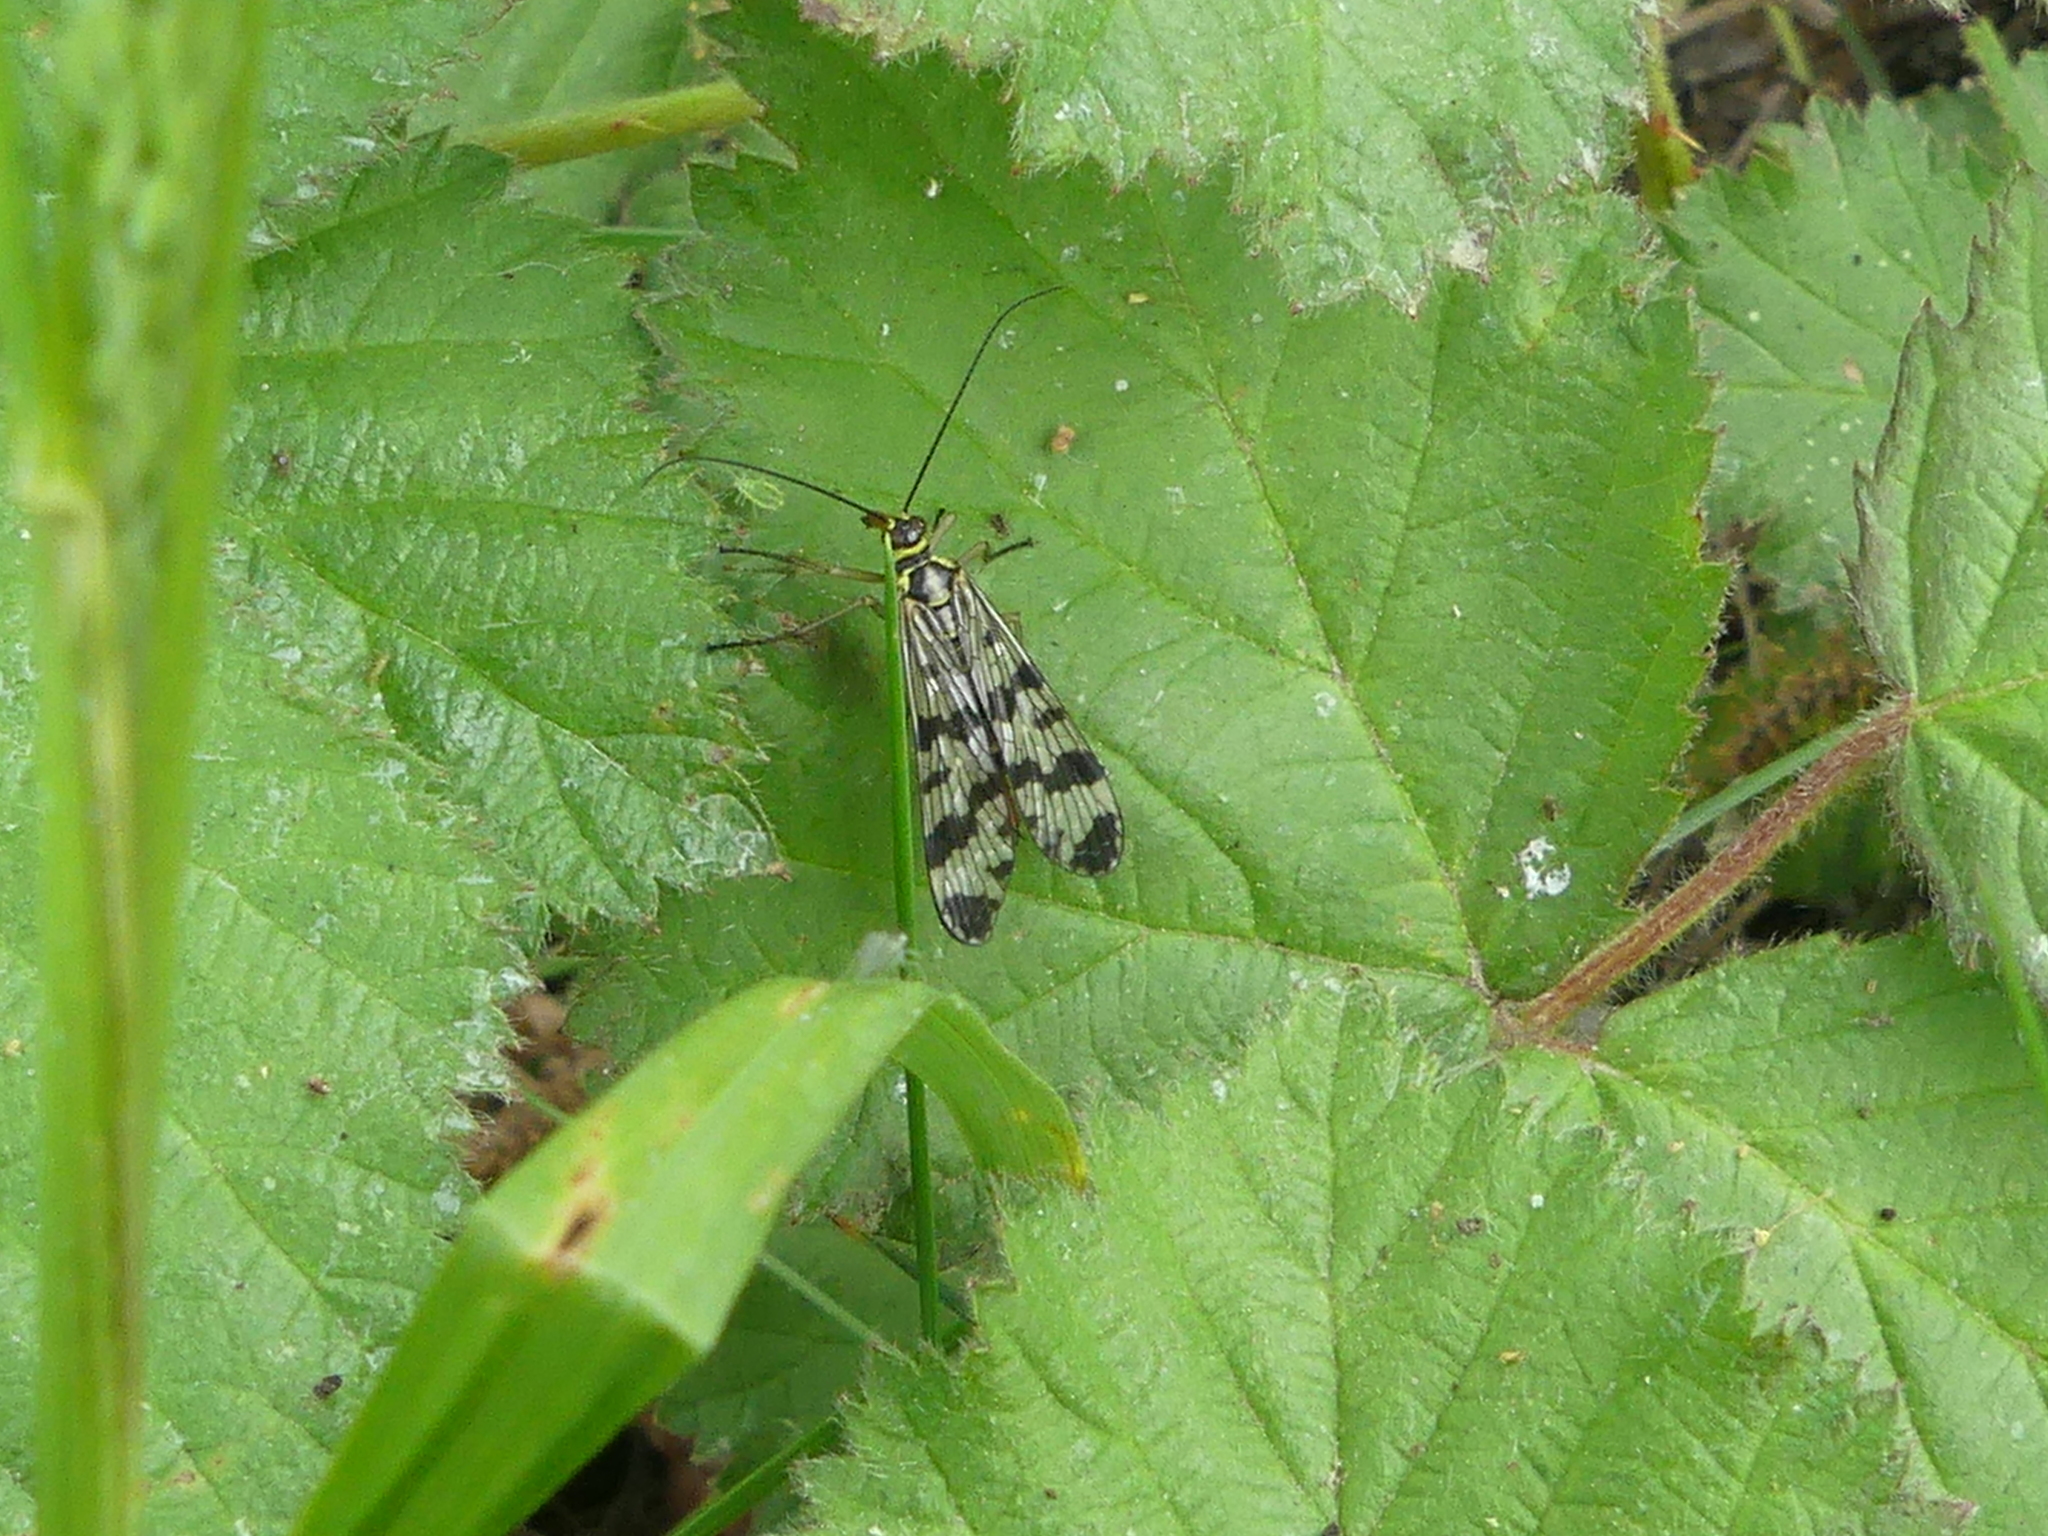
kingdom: Animalia
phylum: Arthropoda
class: Insecta
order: Mecoptera
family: Panorpidae
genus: Panorpa
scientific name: Panorpa germanica
